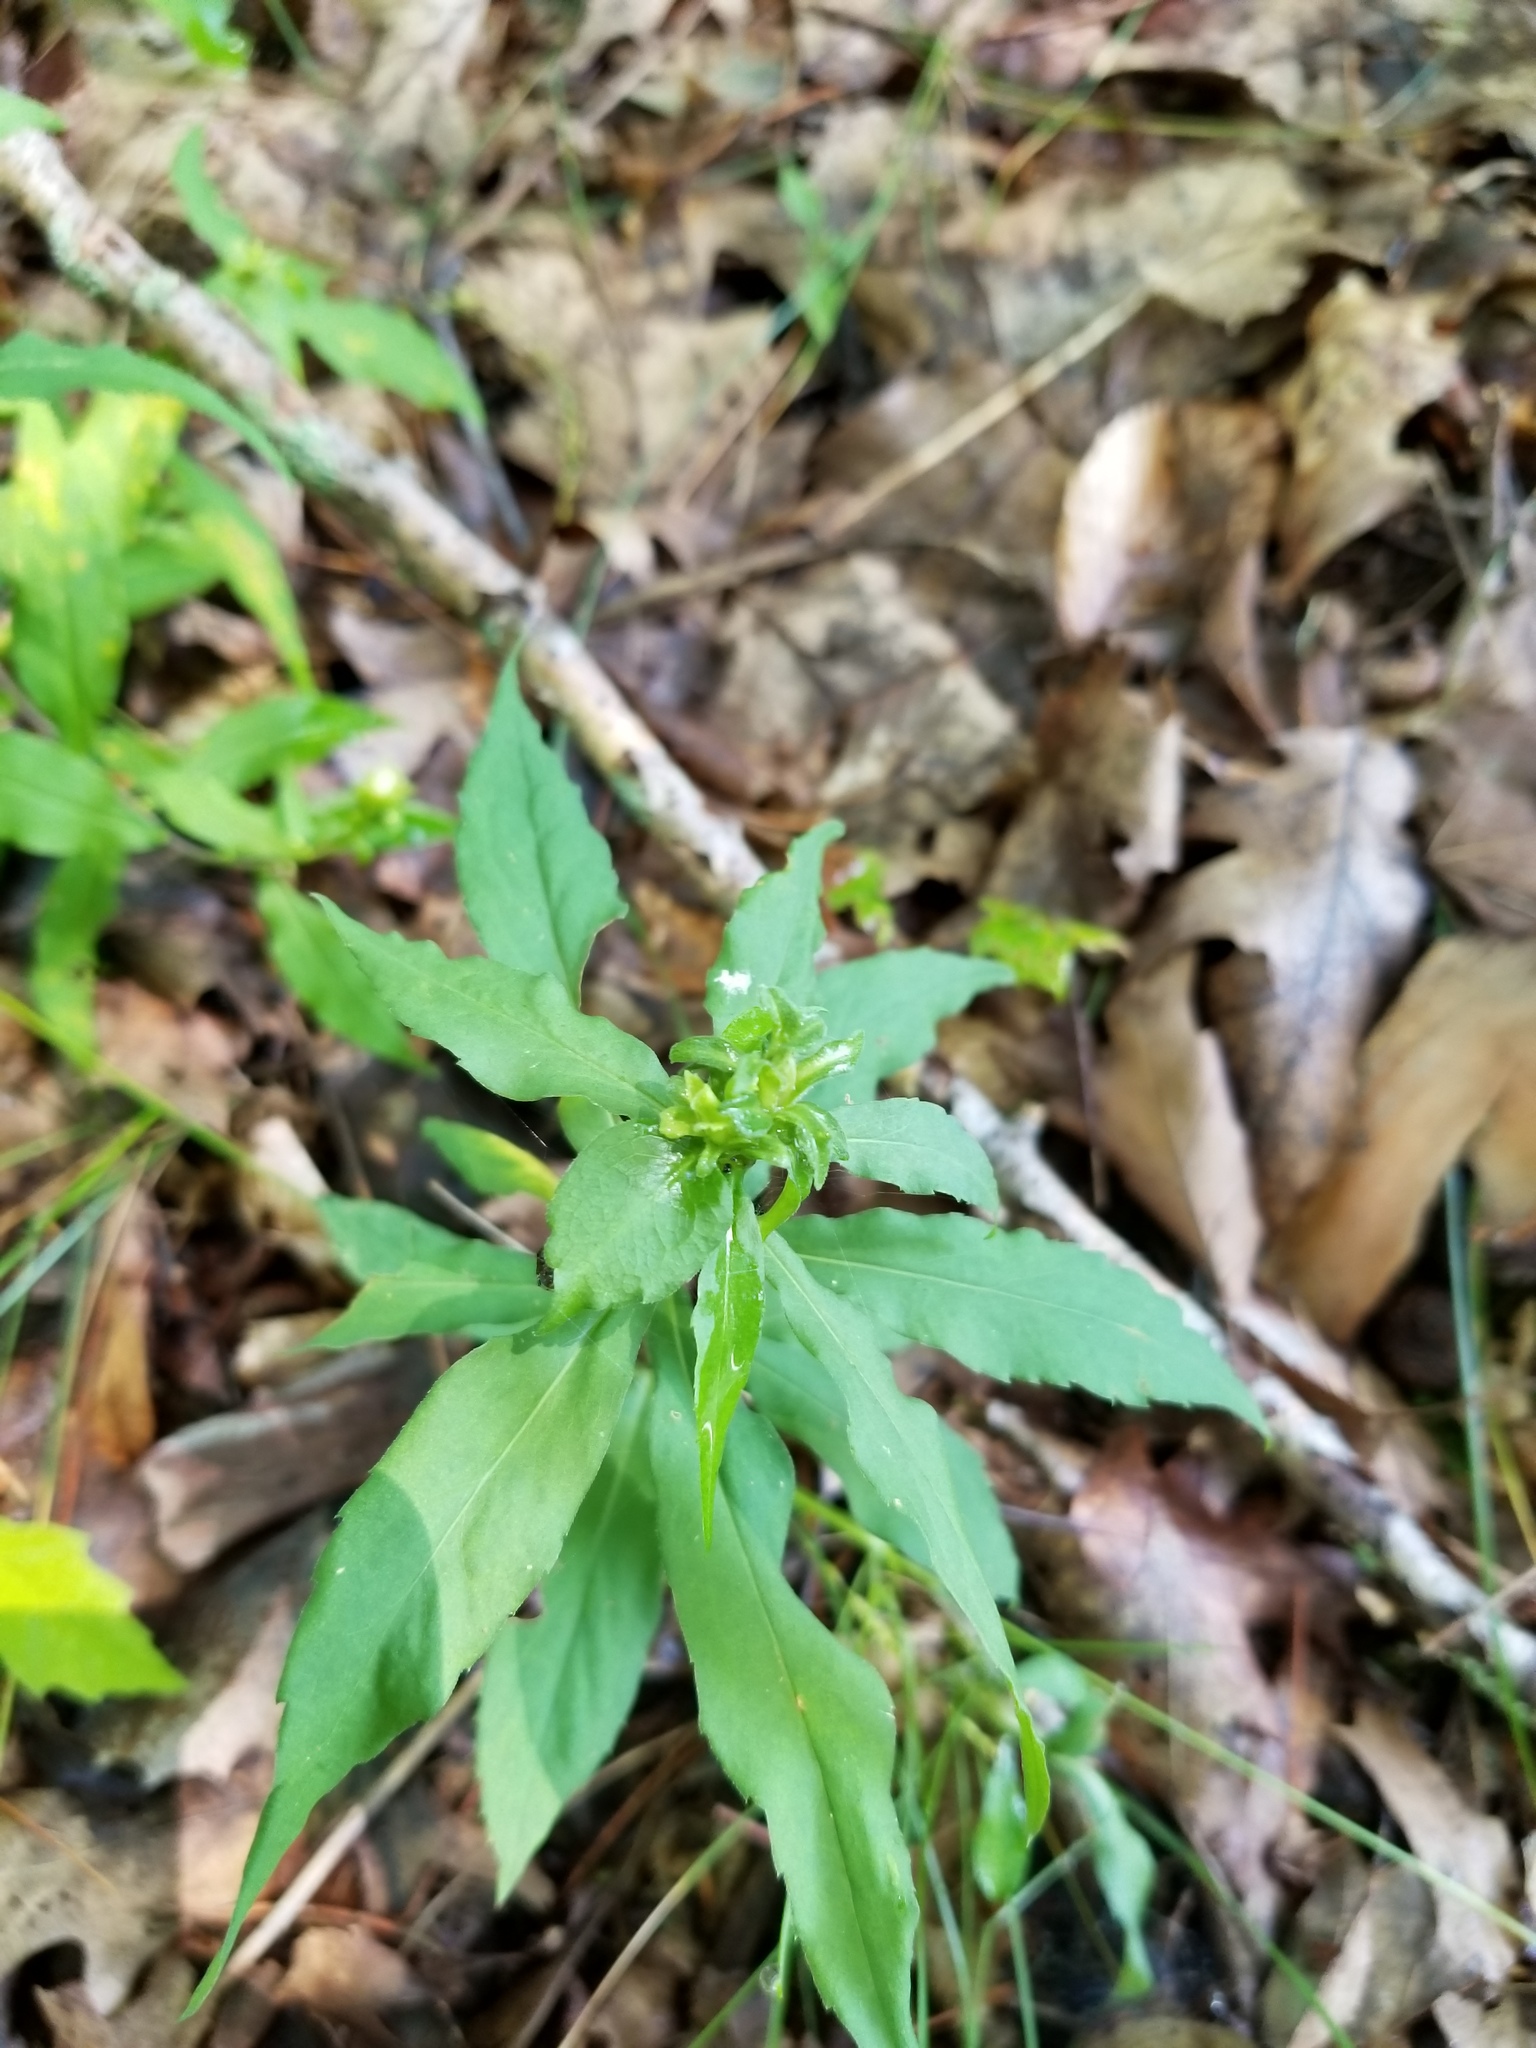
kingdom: Plantae
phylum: Tracheophyta
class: Magnoliopsida
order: Asterales
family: Asteraceae
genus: Solidago
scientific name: Solidago caesia
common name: Woodland goldenrod
